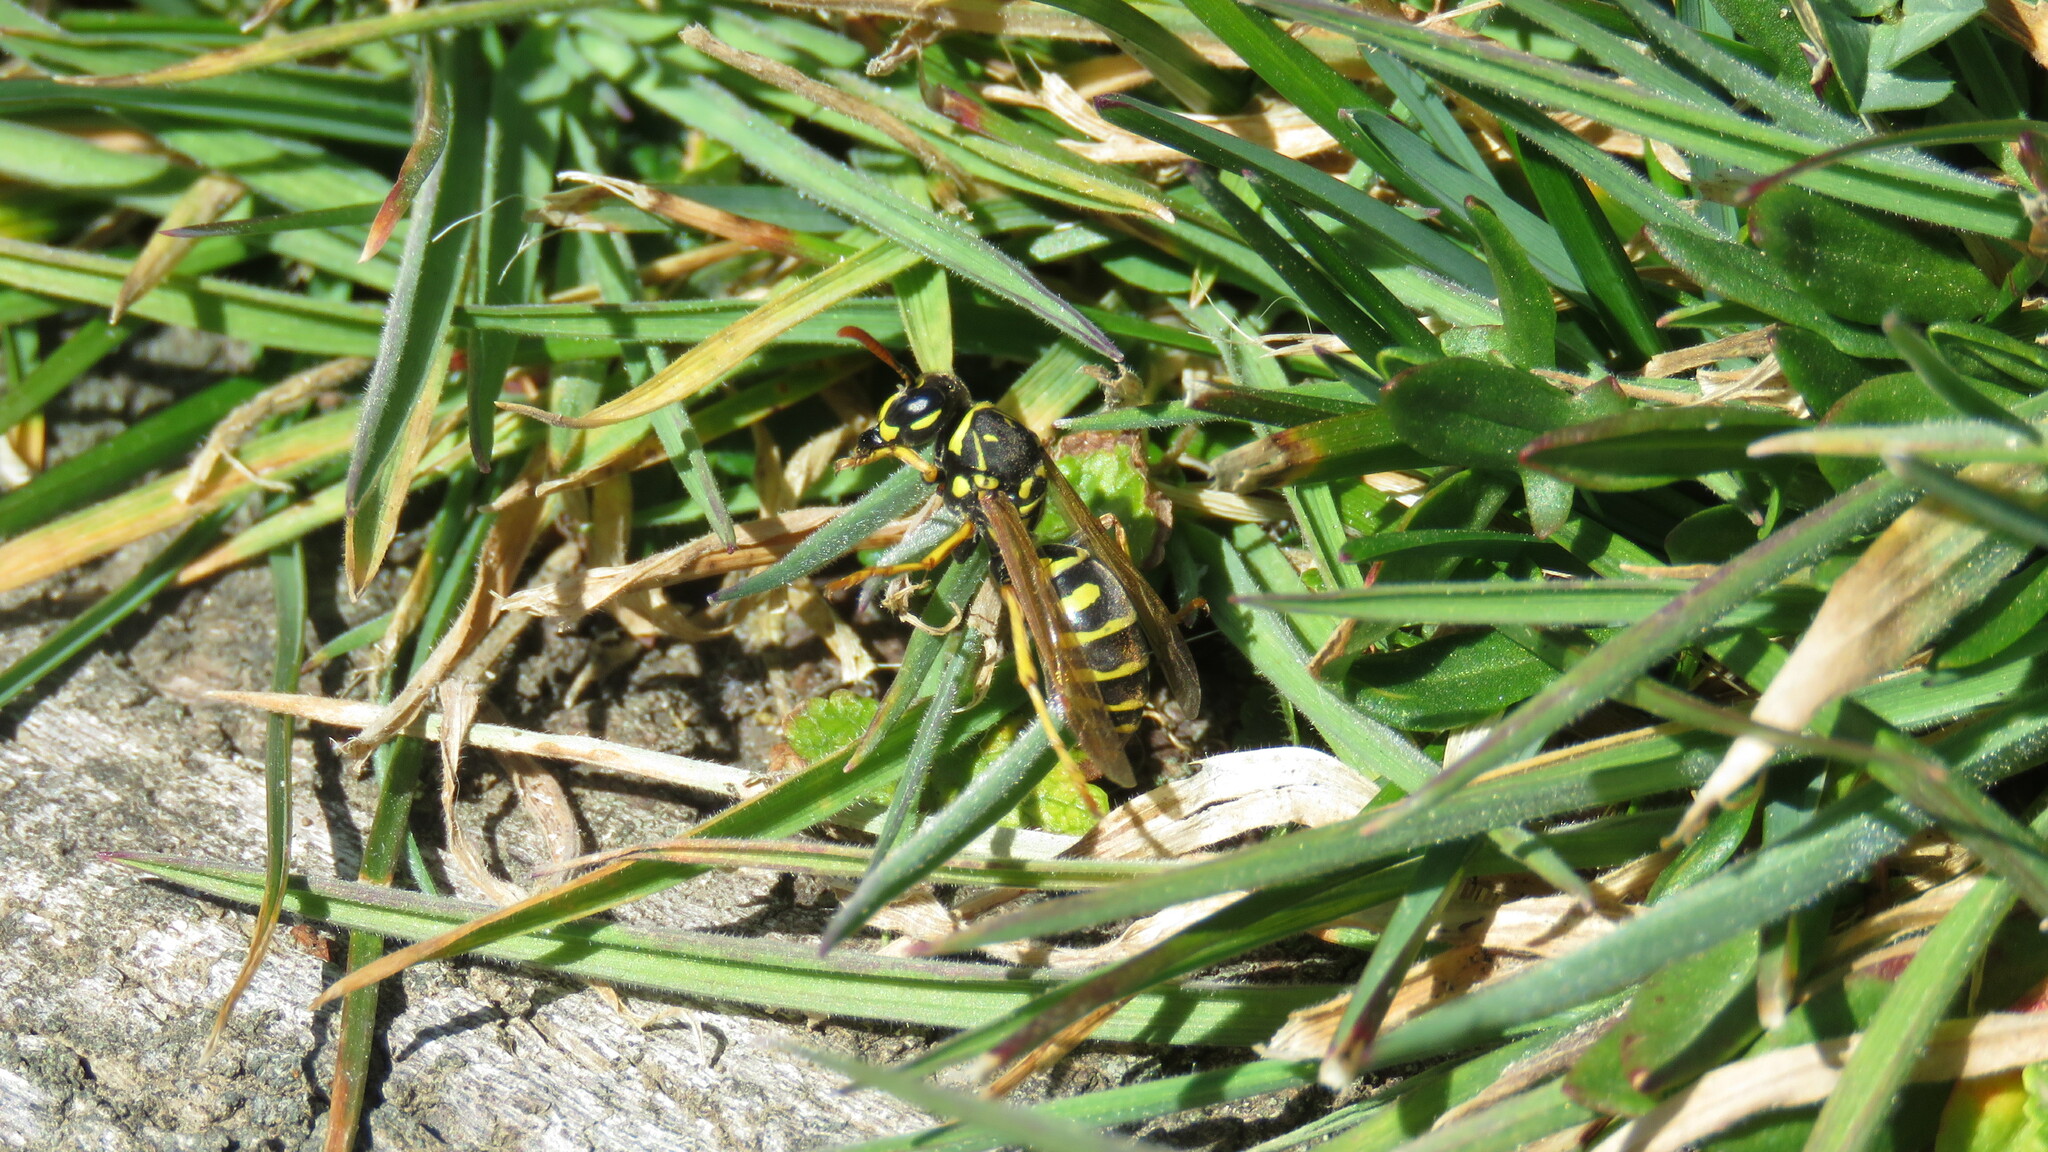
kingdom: Animalia
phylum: Arthropoda
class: Insecta
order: Hymenoptera
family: Eumenidae
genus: Polistes
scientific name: Polistes dominula
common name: Paper wasp
